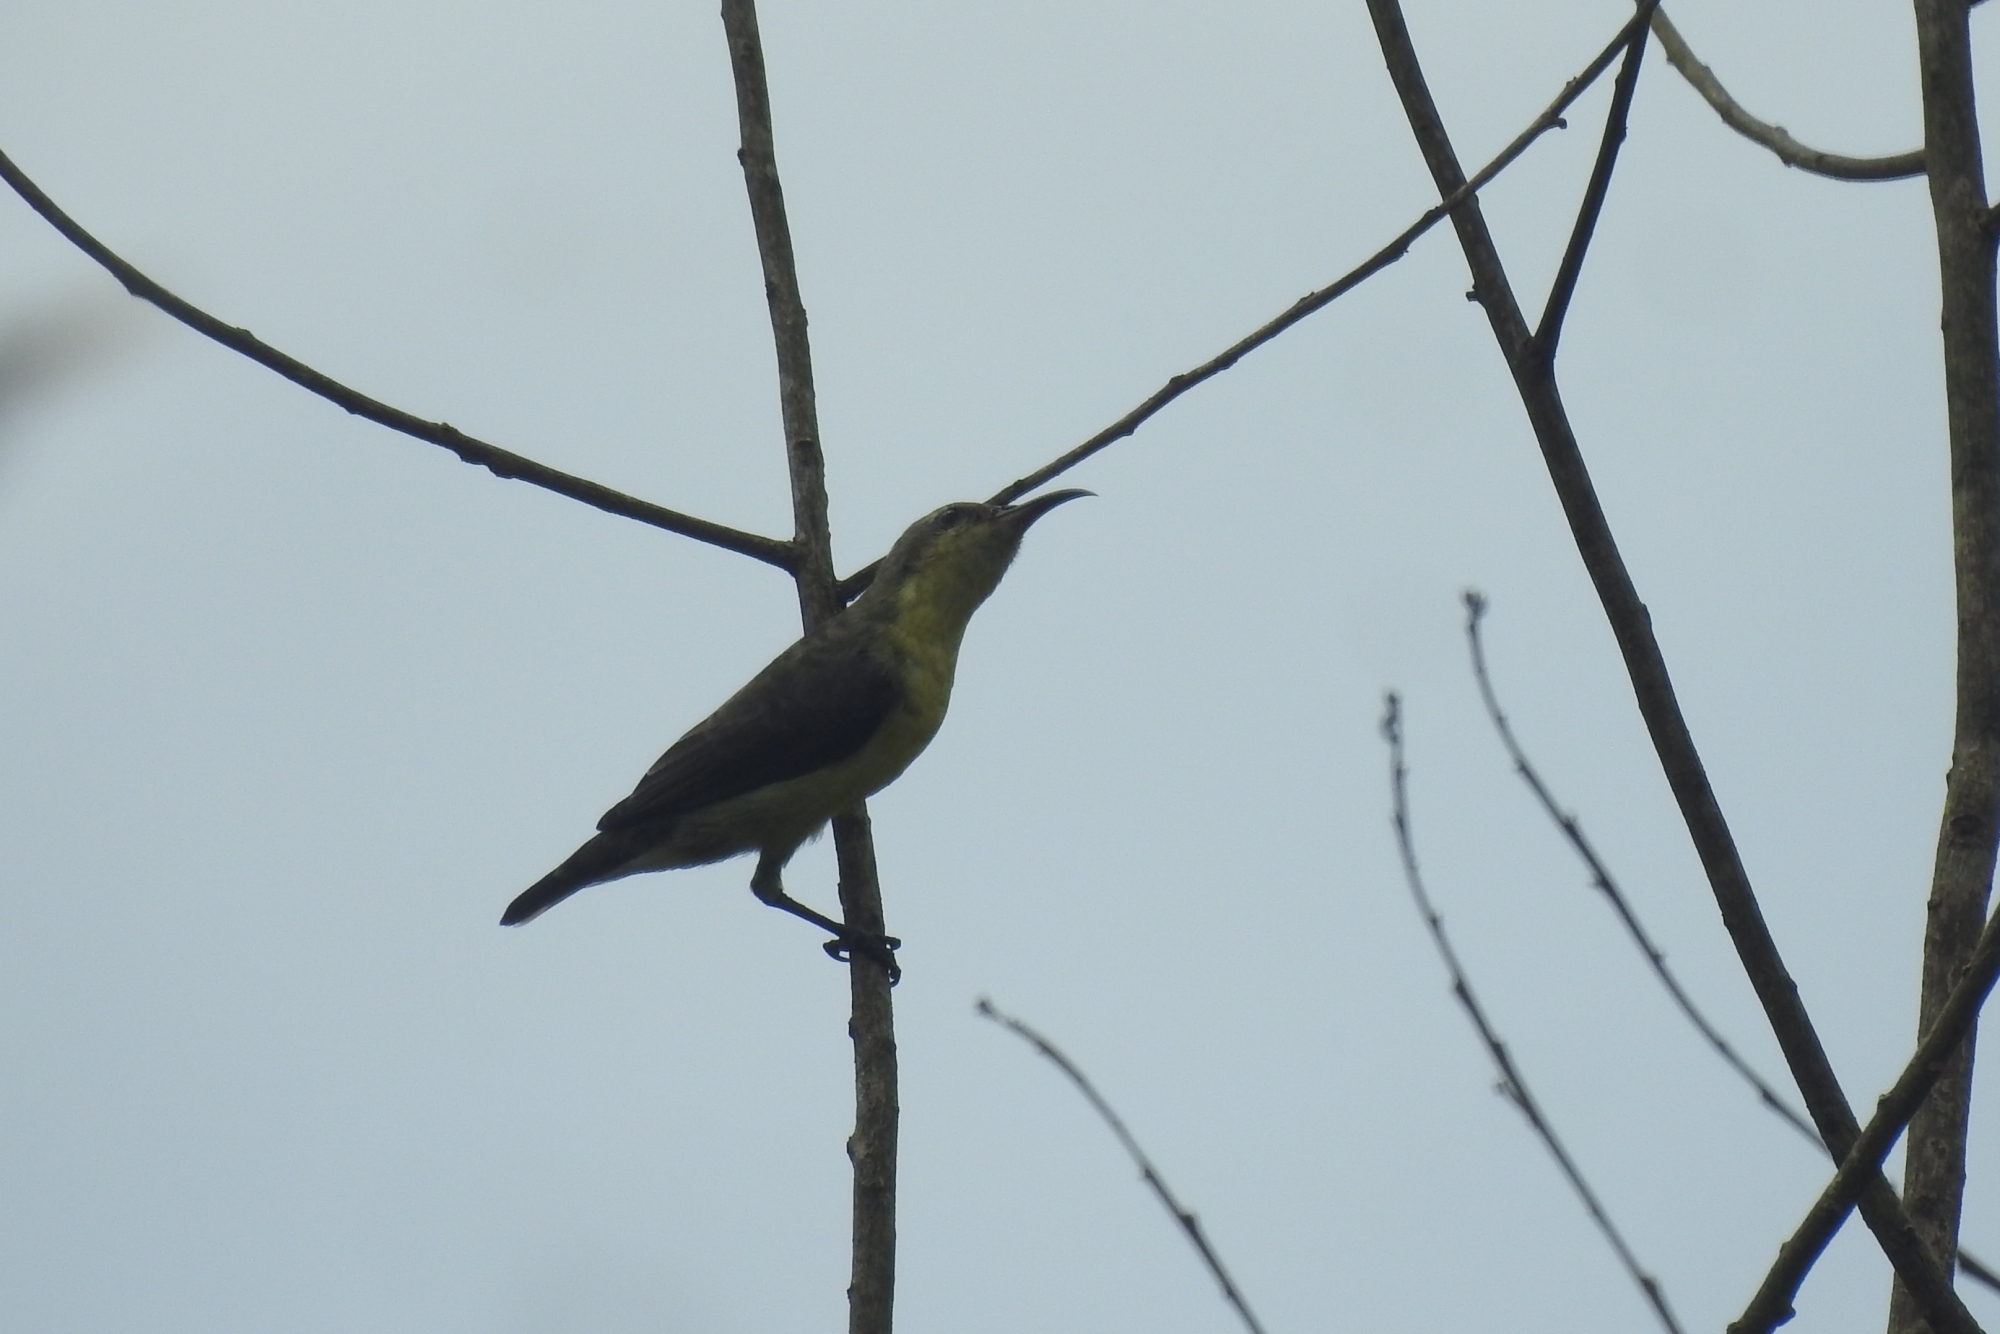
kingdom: Animalia
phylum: Chordata
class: Aves
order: Passeriformes
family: Nectariniidae
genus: Cinnyris
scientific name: Cinnyris asiaticus
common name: Purple sunbird
